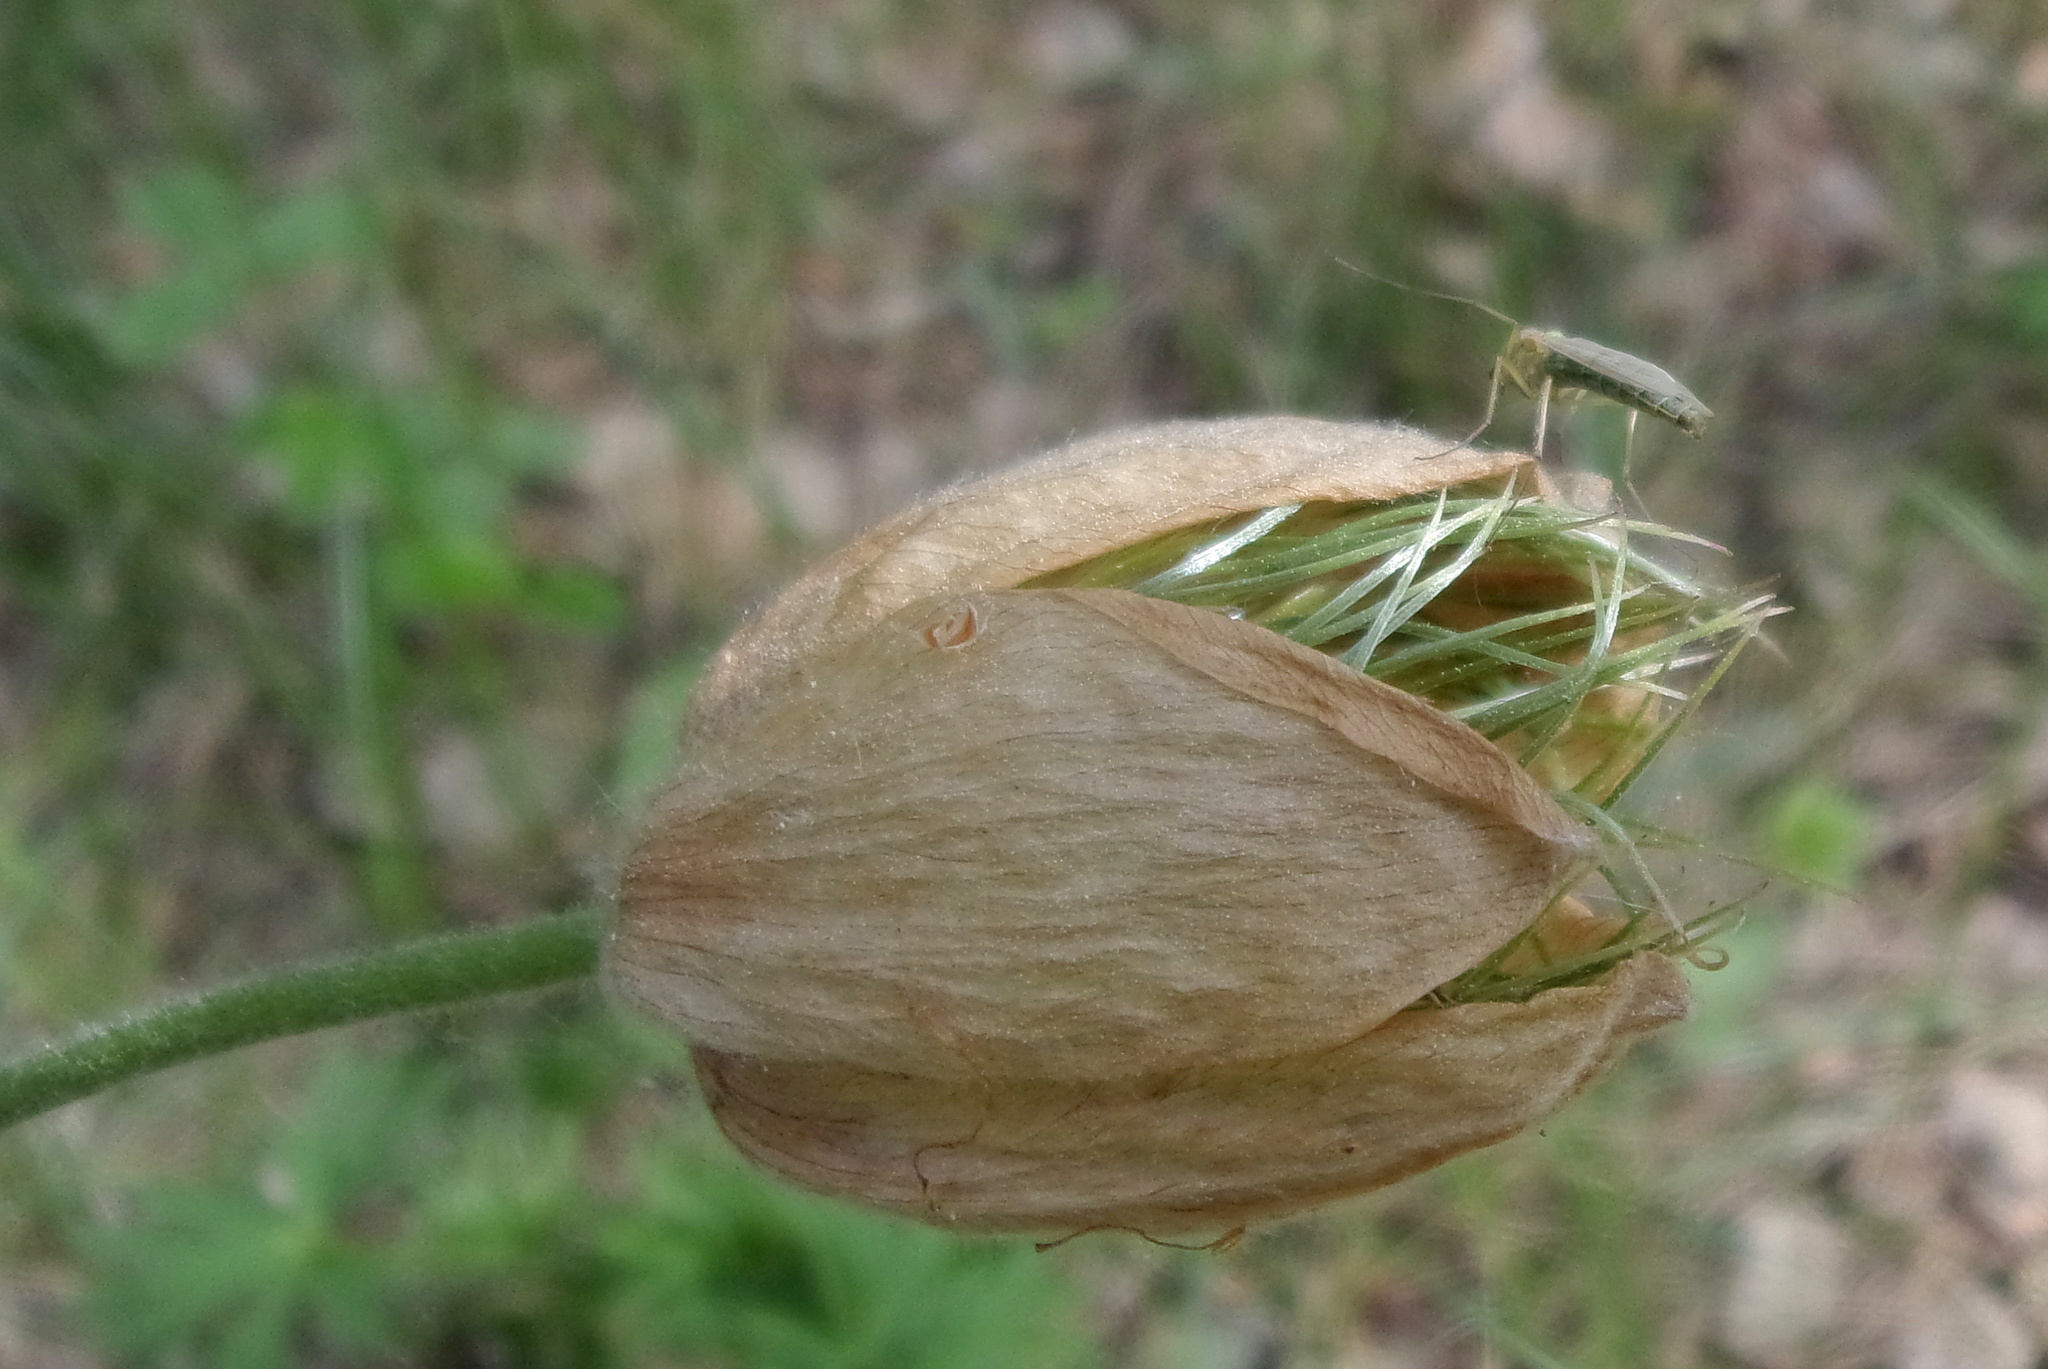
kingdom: Plantae
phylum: Tracheophyta
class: Magnoliopsida
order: Ranunculales
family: Ranunculaceae
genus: Pulsatilla
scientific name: Pulsatilla patens
